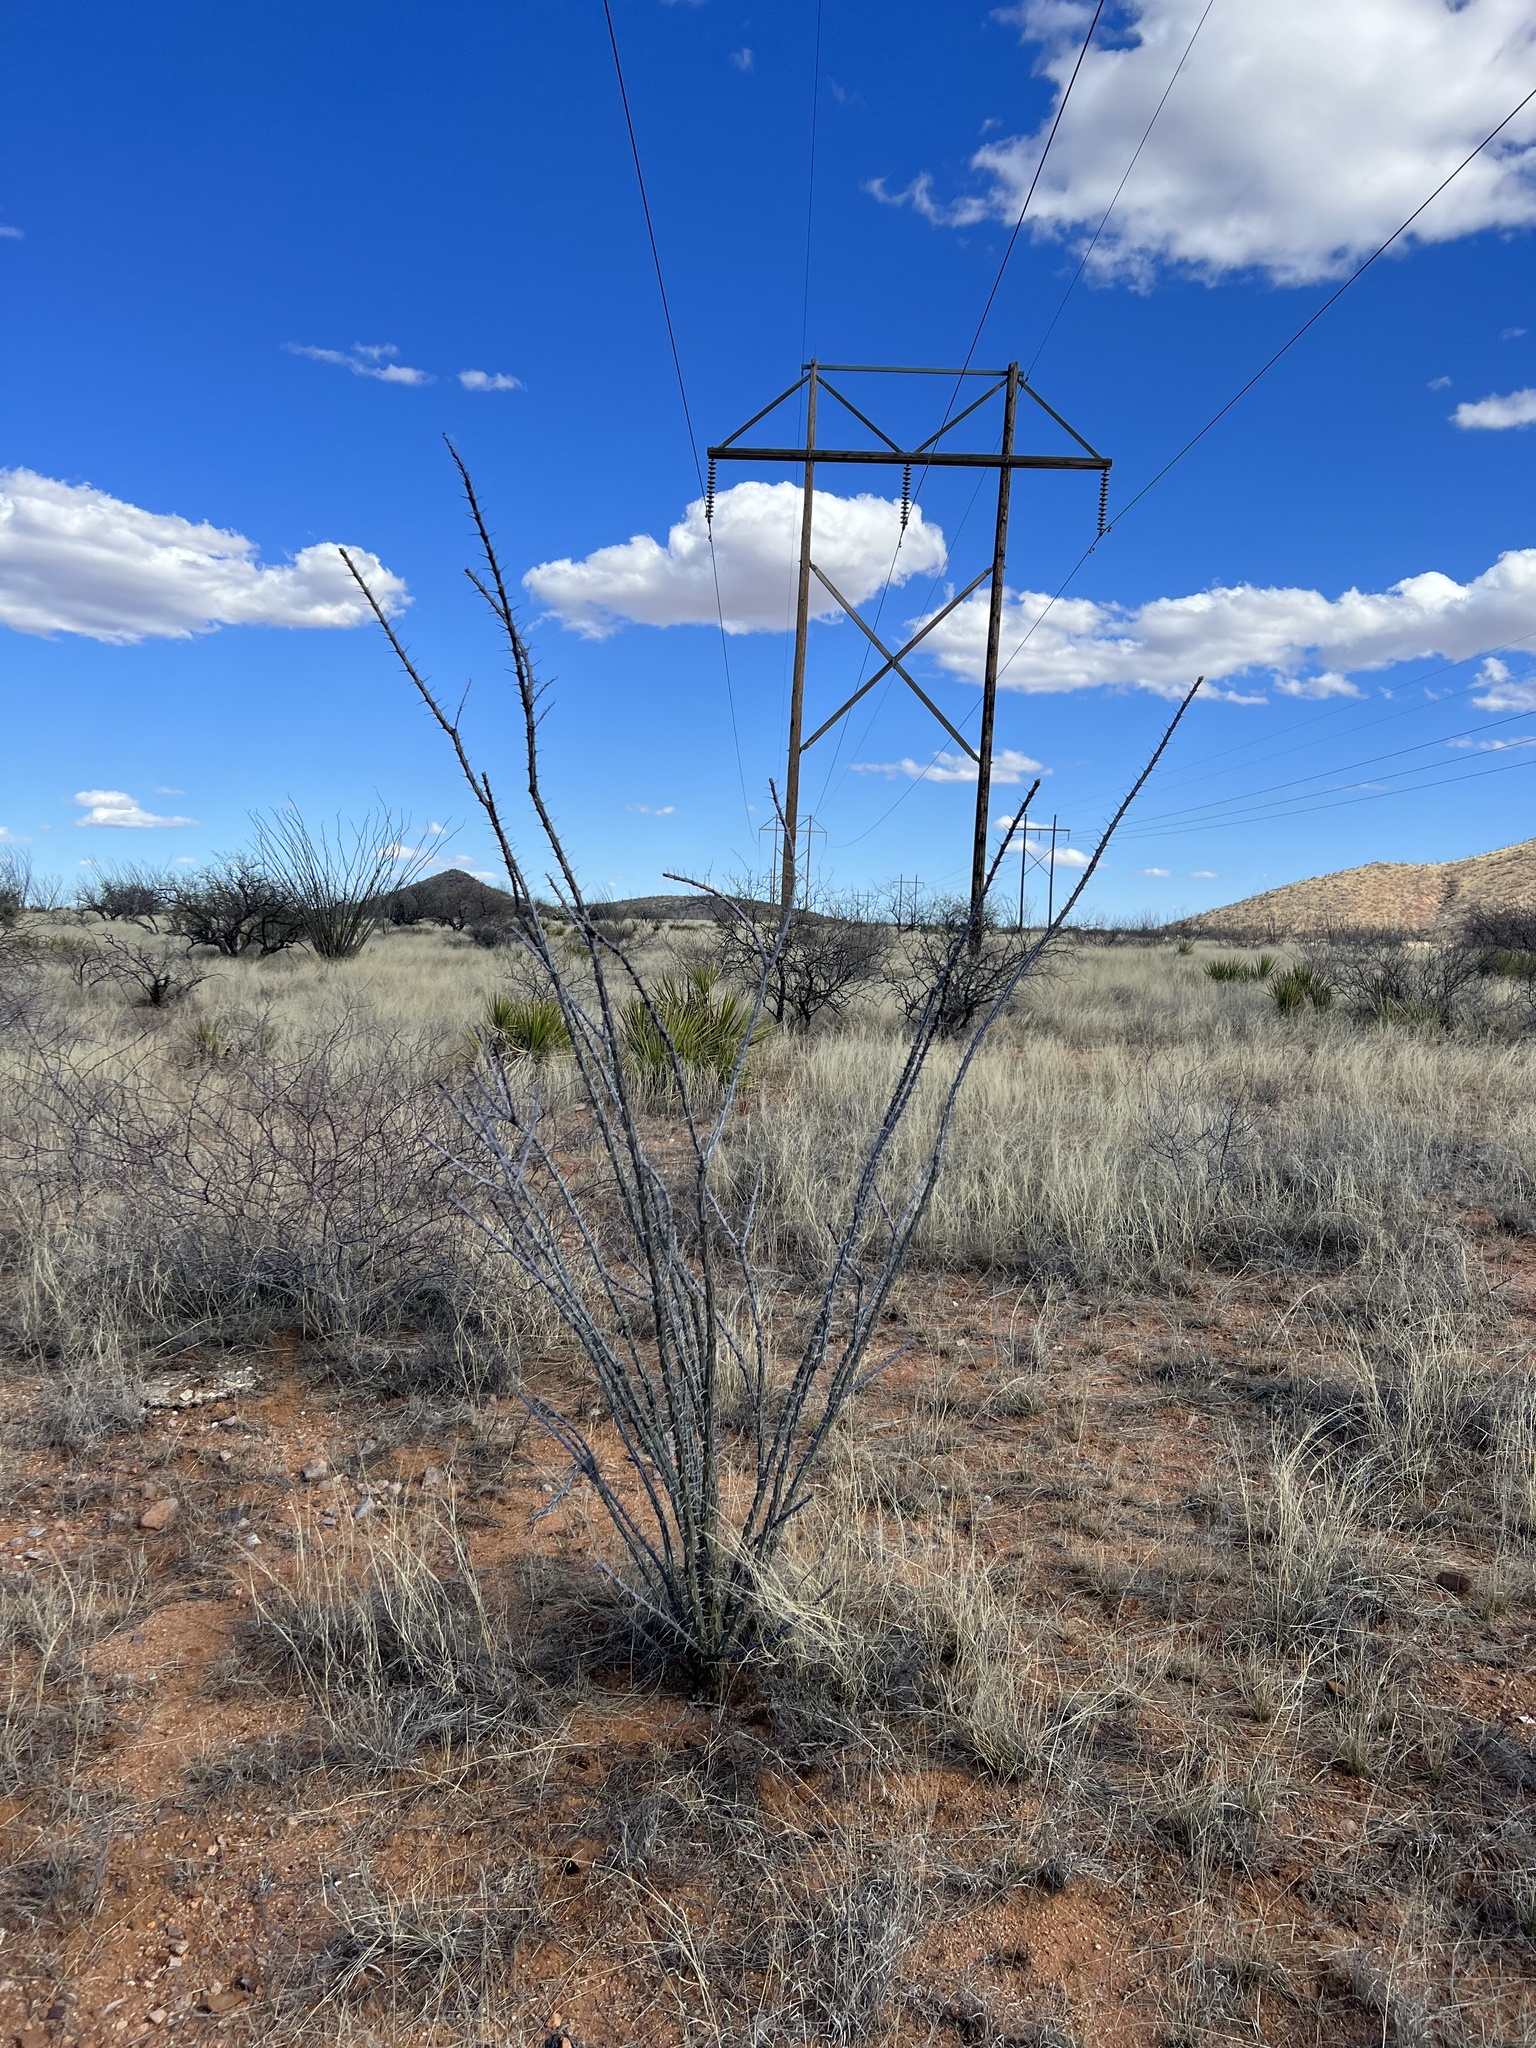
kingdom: Plantae
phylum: Tracheophyta
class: Magnoliopsida
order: Ericales
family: Fouquieriaceae
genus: Fouquieria
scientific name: Fouquieria splendens
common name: Vine-cactus
